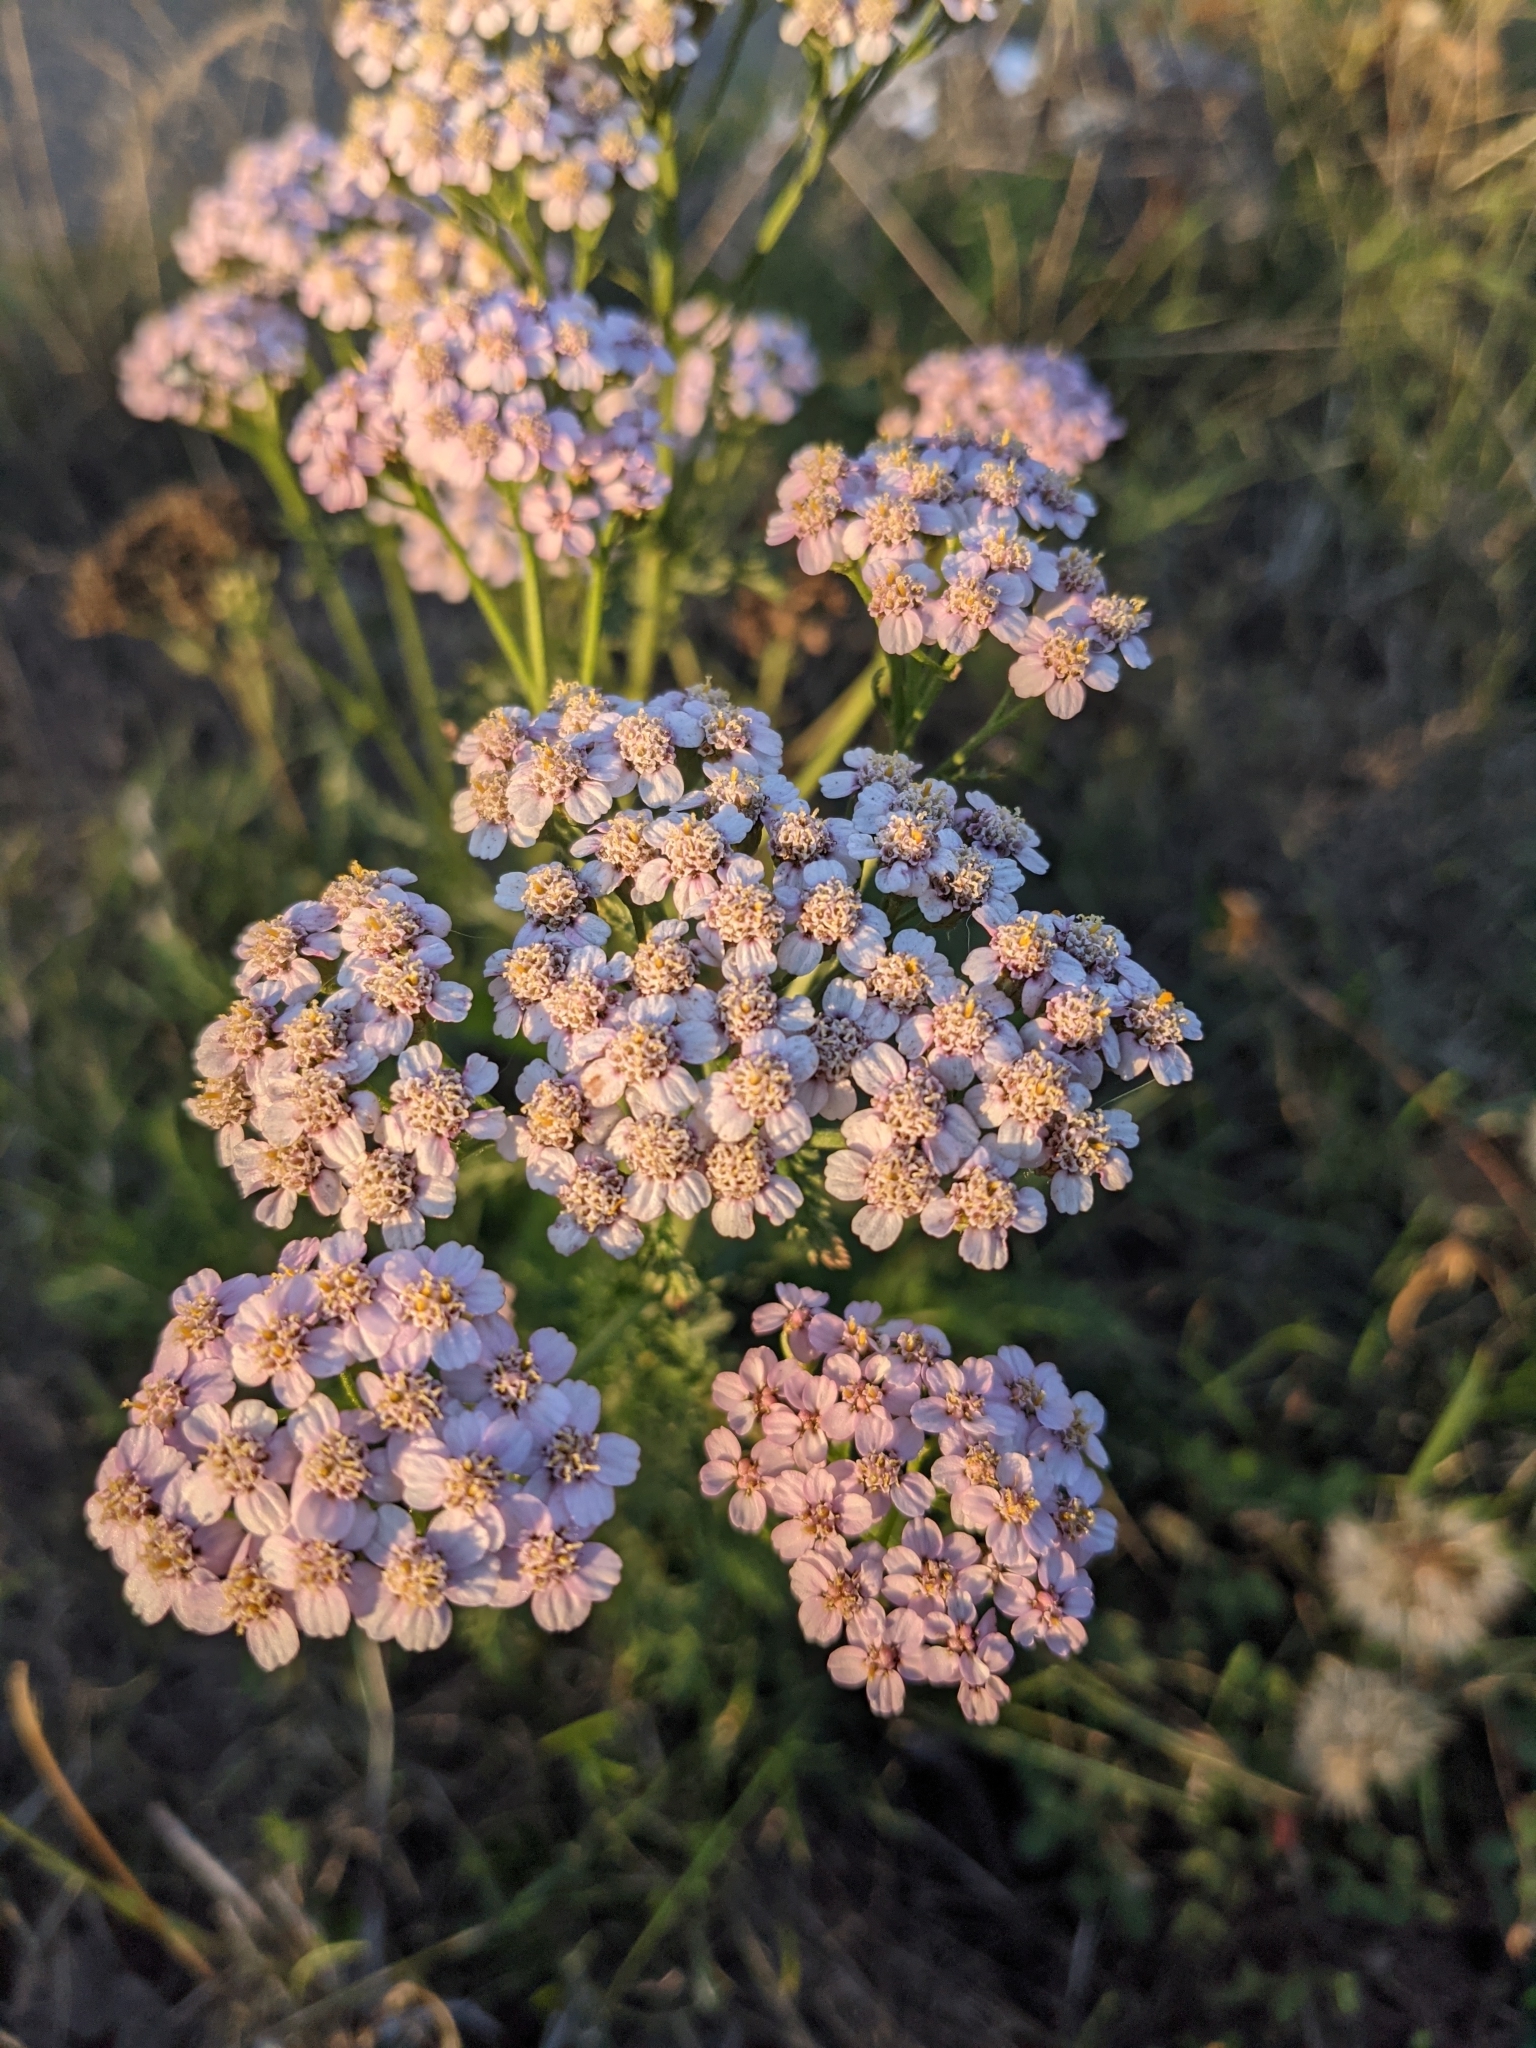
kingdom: Plantae
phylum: Tracheophyta
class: Magnoliopsida
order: Asterales
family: Asteraceae
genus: Achillea
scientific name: Achillea millefolium
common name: Yarrow
